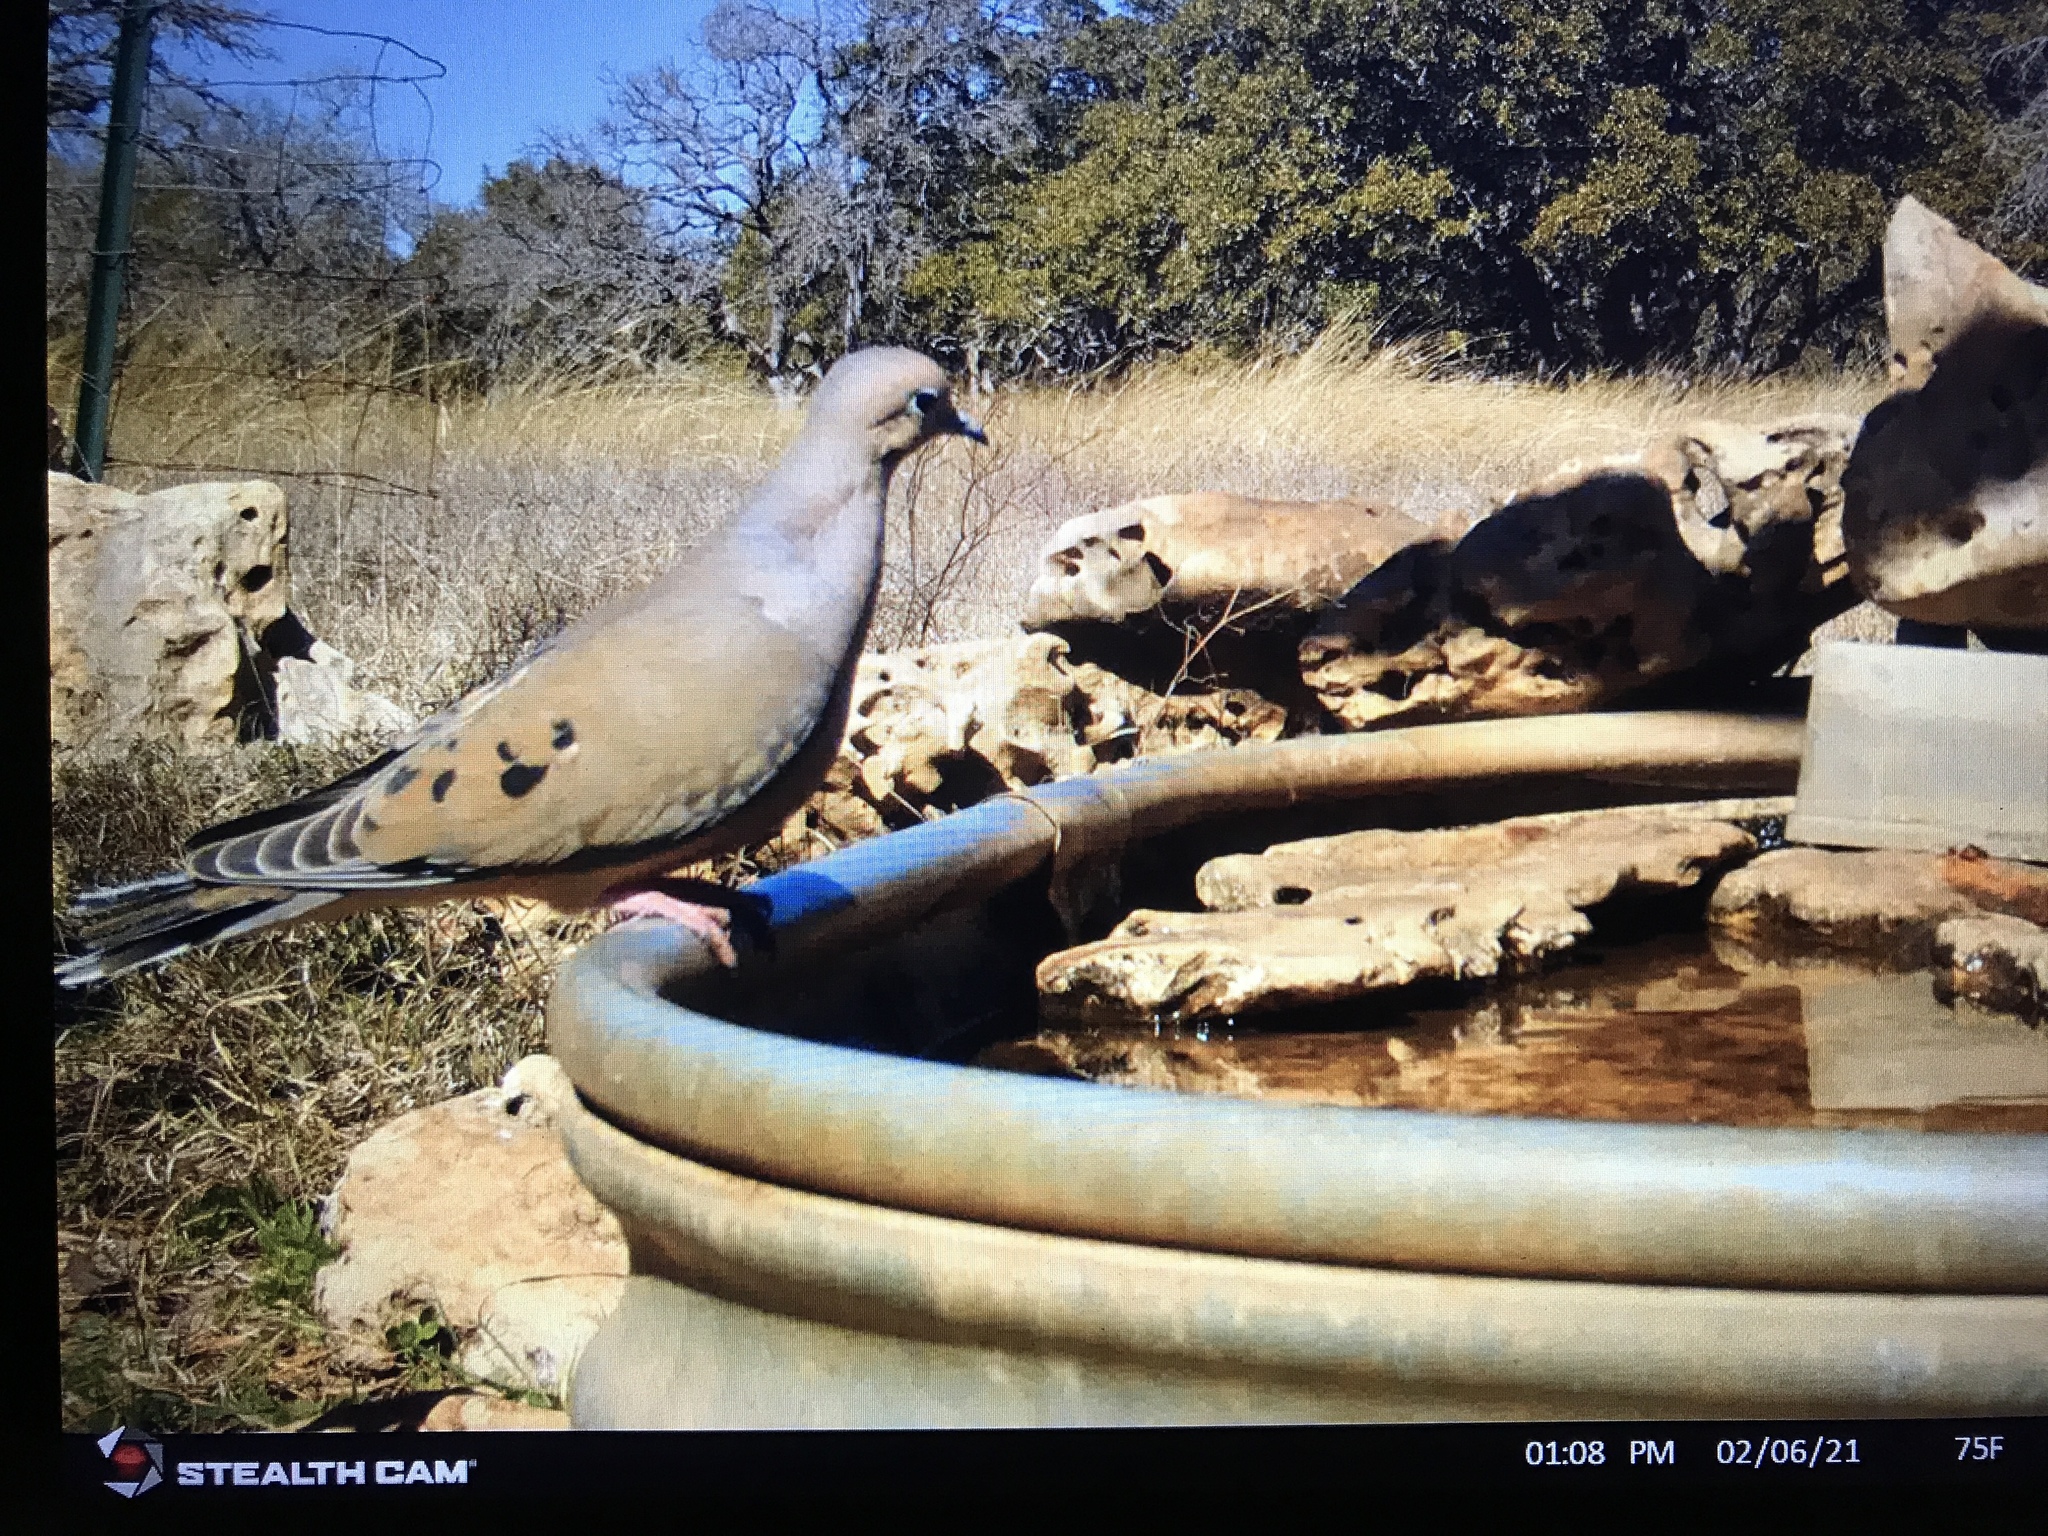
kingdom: Animalia
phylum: Chordata
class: Aves
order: Columbiformes
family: Columbidae
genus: Zenaida
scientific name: Zenaida macroura
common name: Mourning dove
